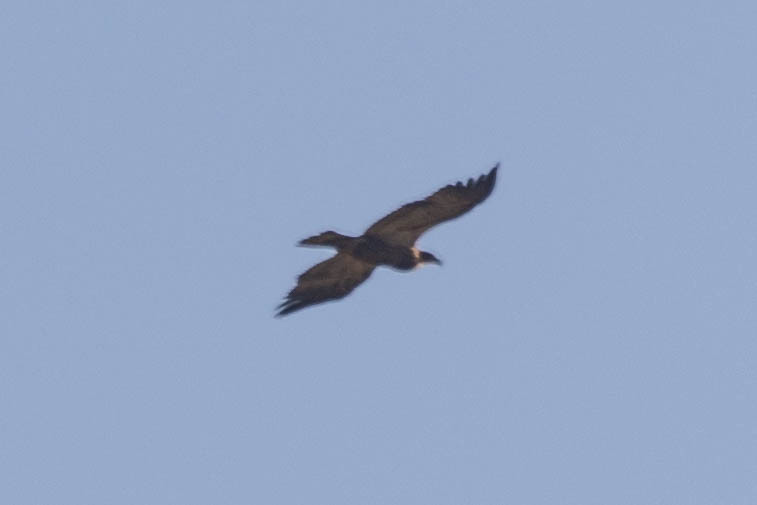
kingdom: Animalia
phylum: Chordata
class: Aves
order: Accipitriformes
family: Accipitridae
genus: Haliaeetus
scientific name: Haliaeetus leucocephalus
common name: Bald eagle
